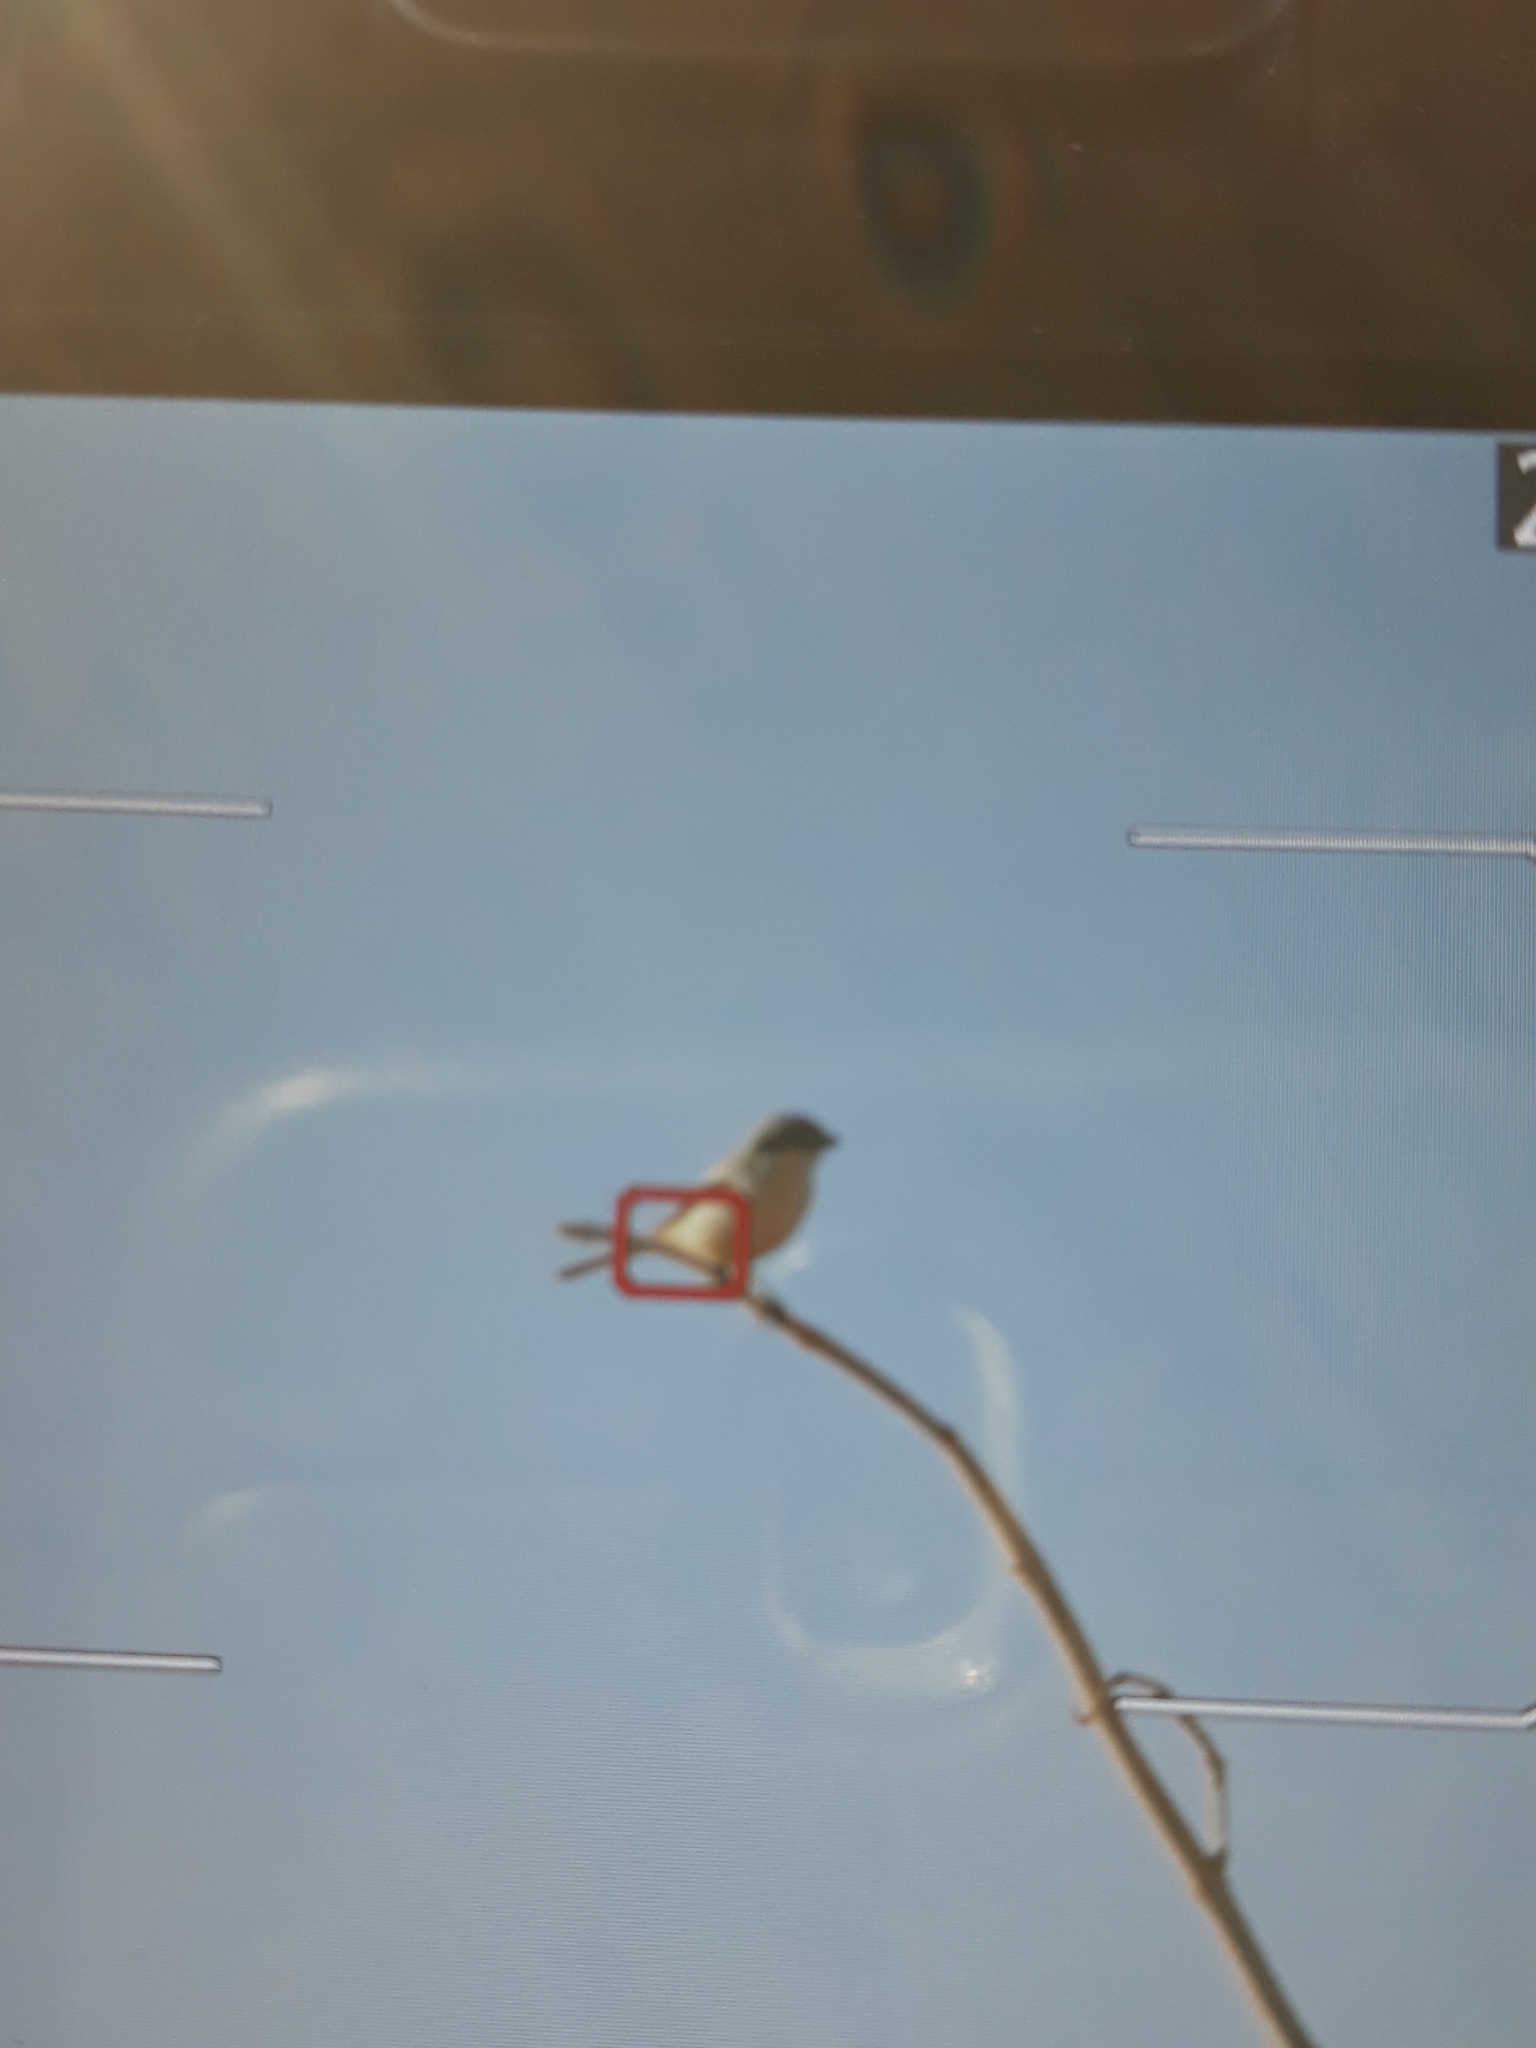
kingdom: Animalia
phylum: Chordata
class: Aves
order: Passeriformes
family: Laniidae
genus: Lanius
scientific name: Lanius excubitor
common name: Great grey shrike
